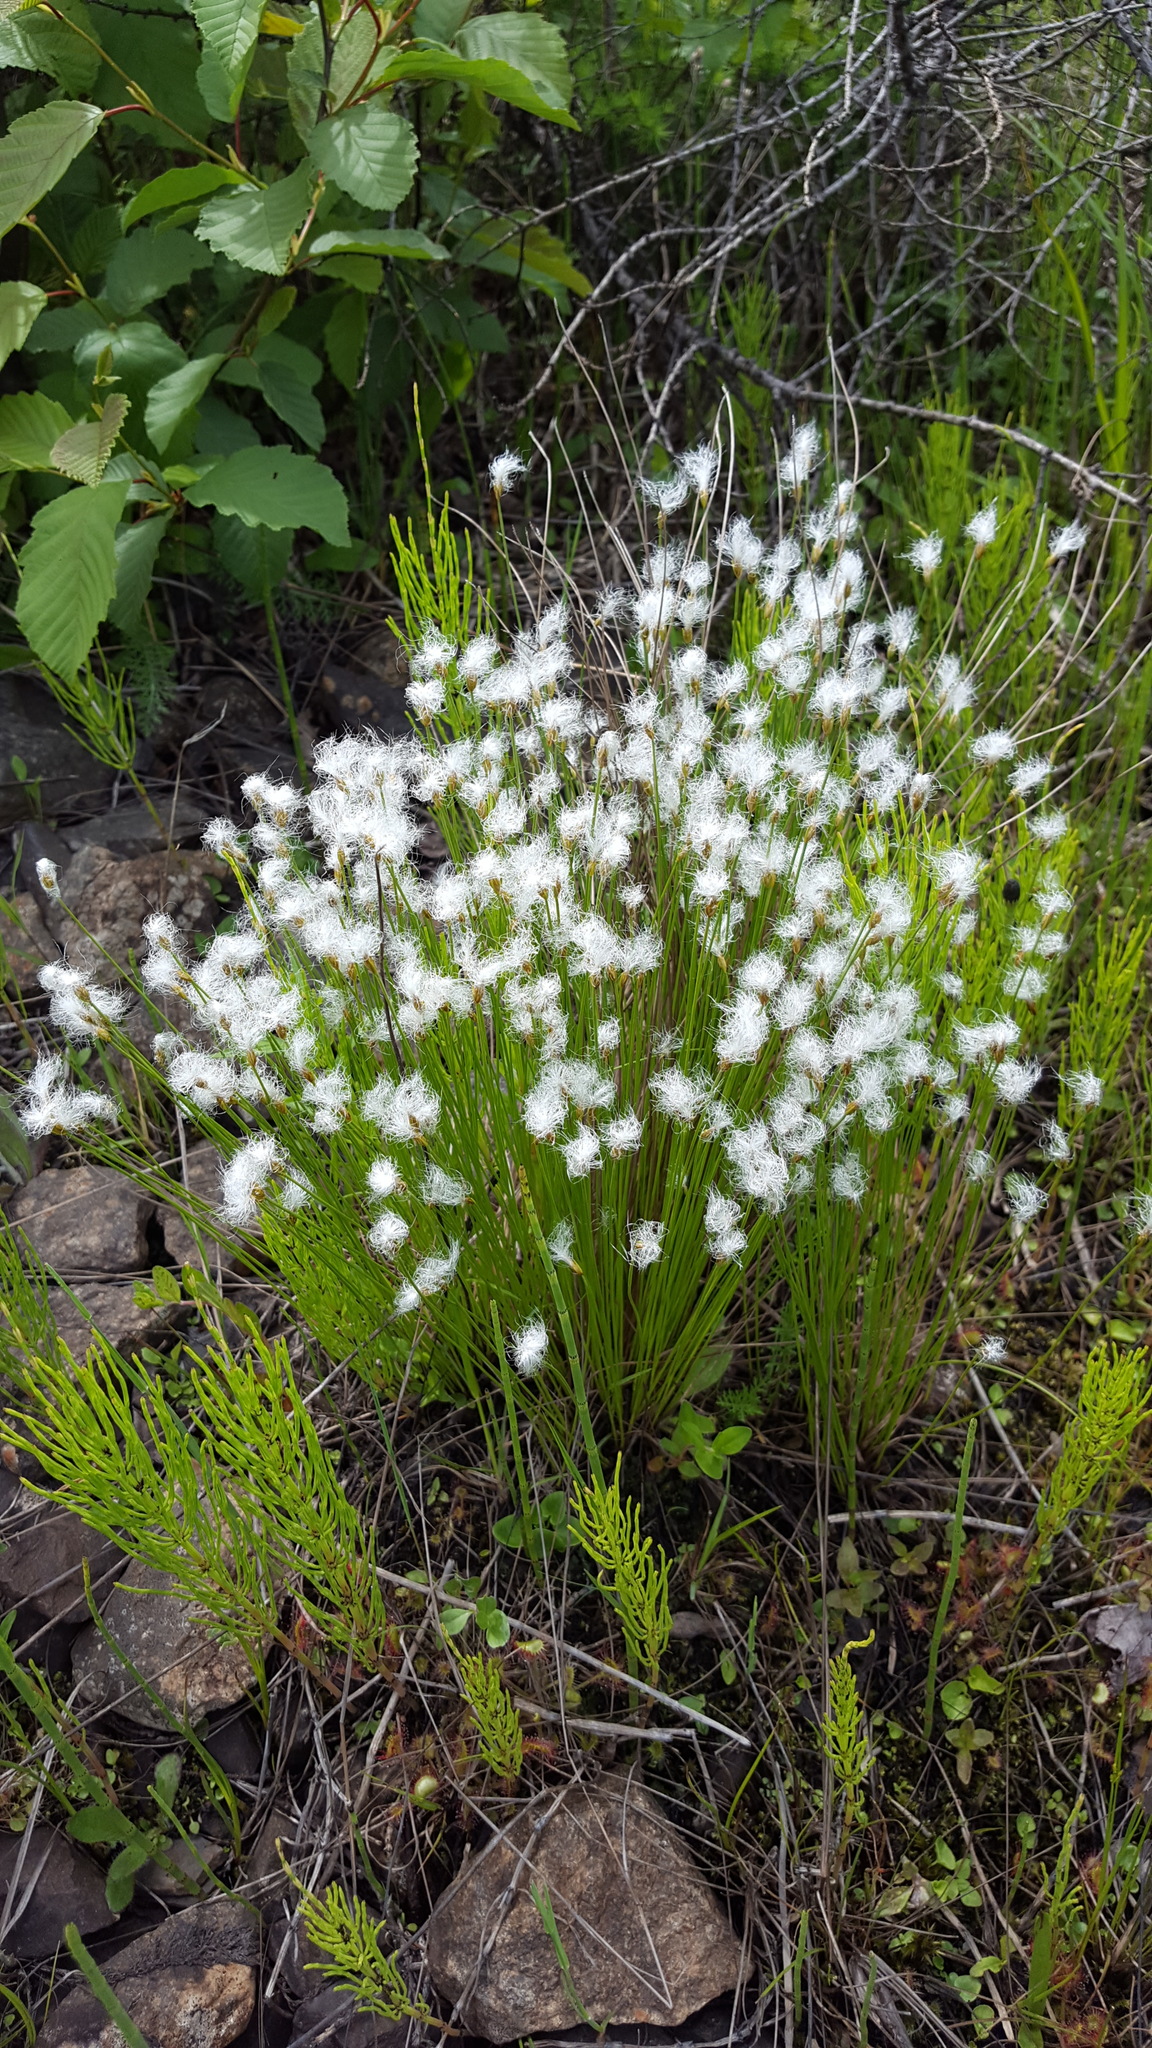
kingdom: Plantae
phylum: Tracheophyta
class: Liliopsida
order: Poales
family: Cyperaceae
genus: Trichophorum
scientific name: Trichophorum alpinum
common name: Alpine bulrush
